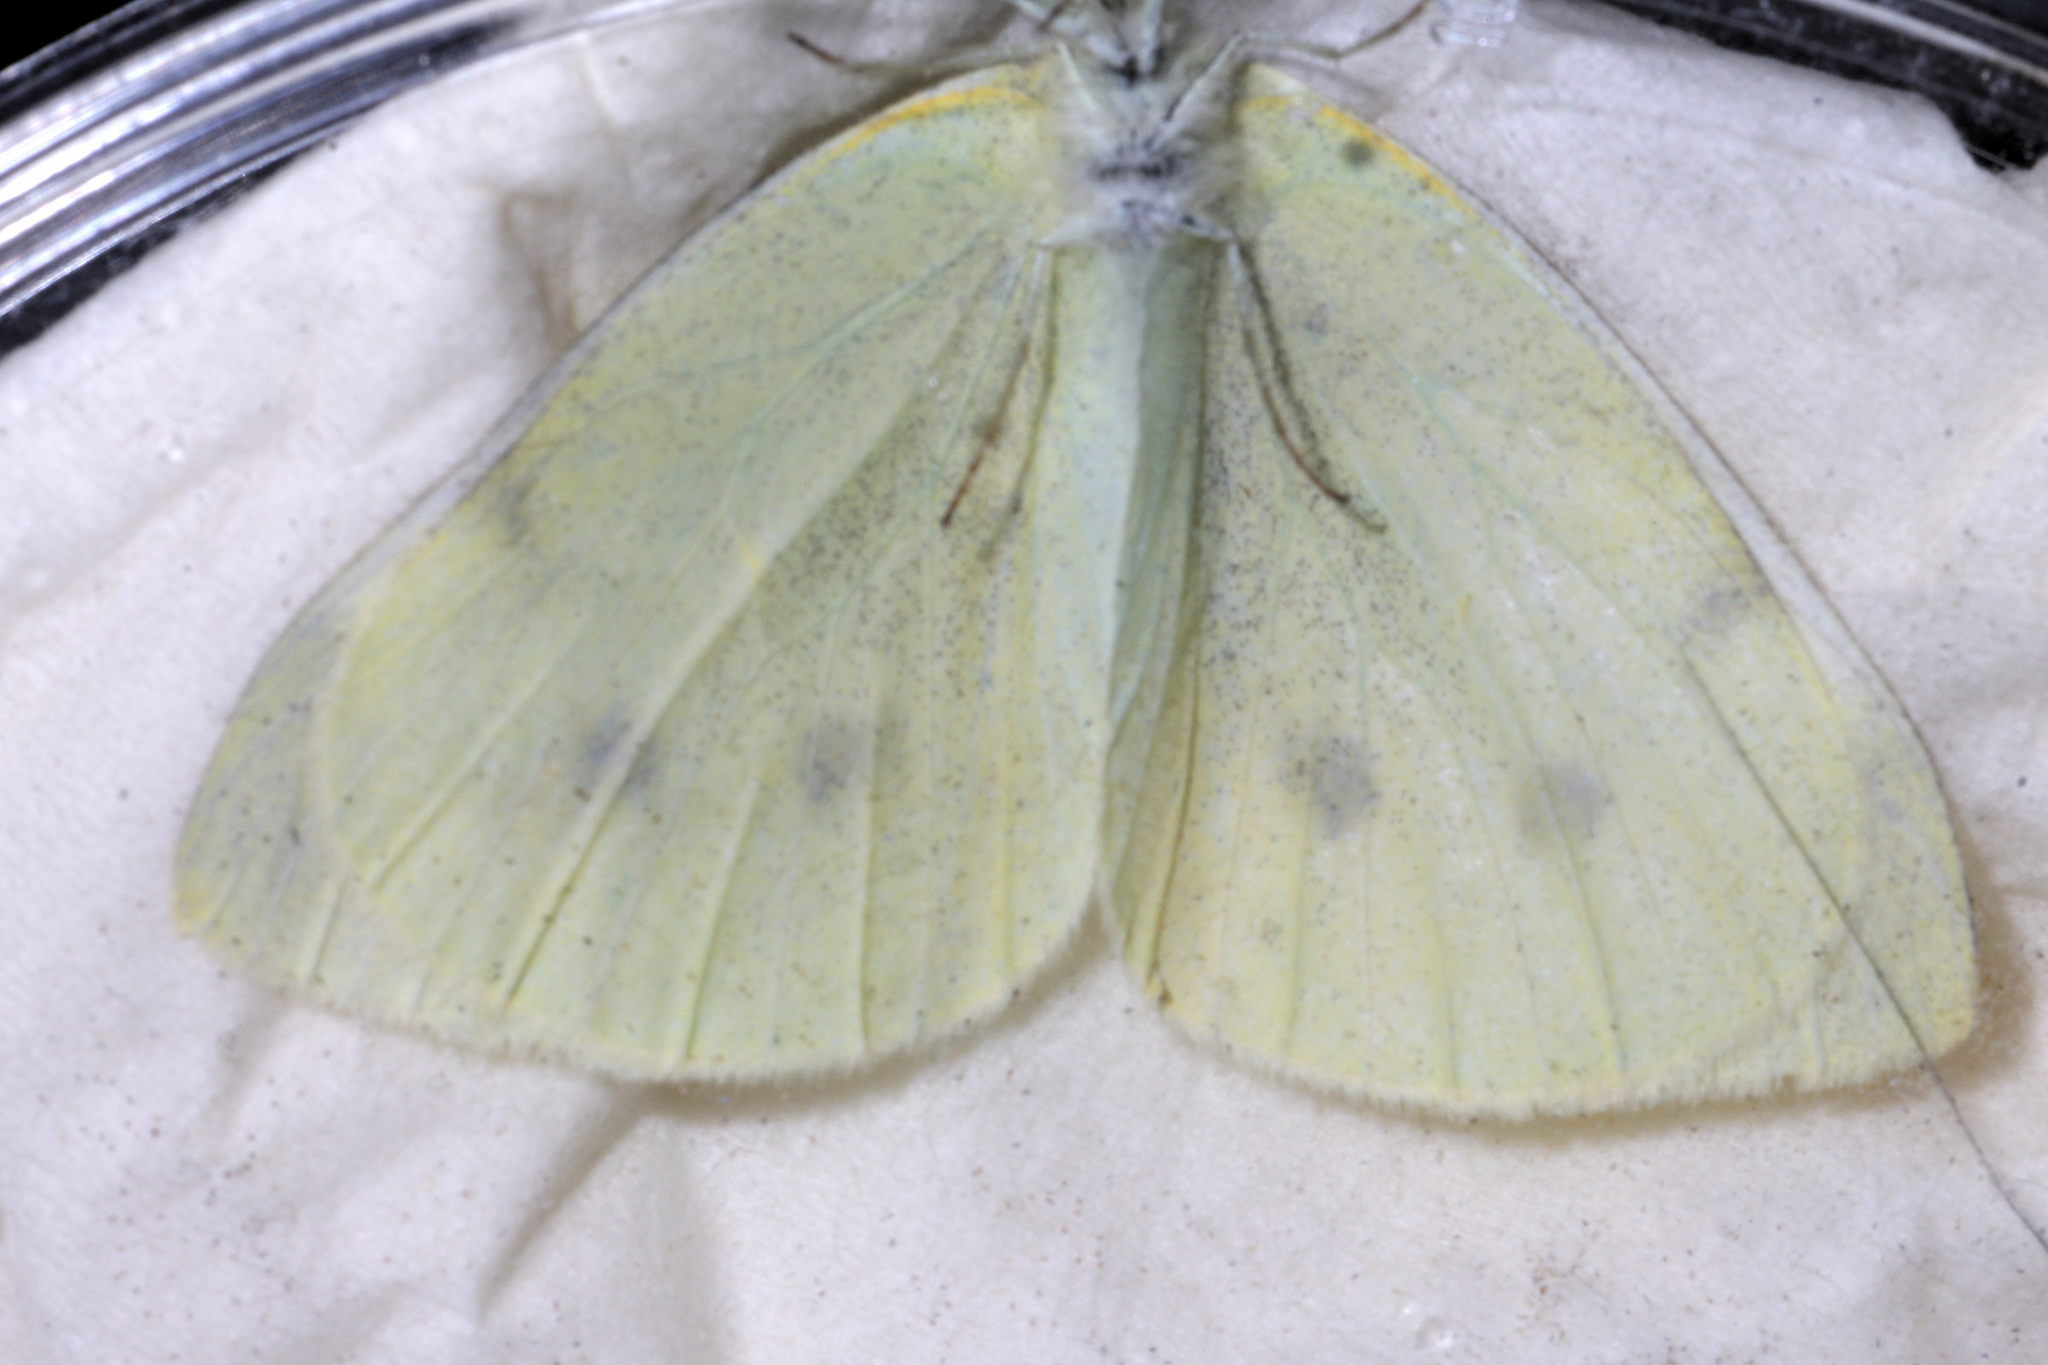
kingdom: Animalia
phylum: Arthropoda
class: Insecta
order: Lepidoptera
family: Pieridae
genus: Pieris
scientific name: Pieris rapae
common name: Small white
